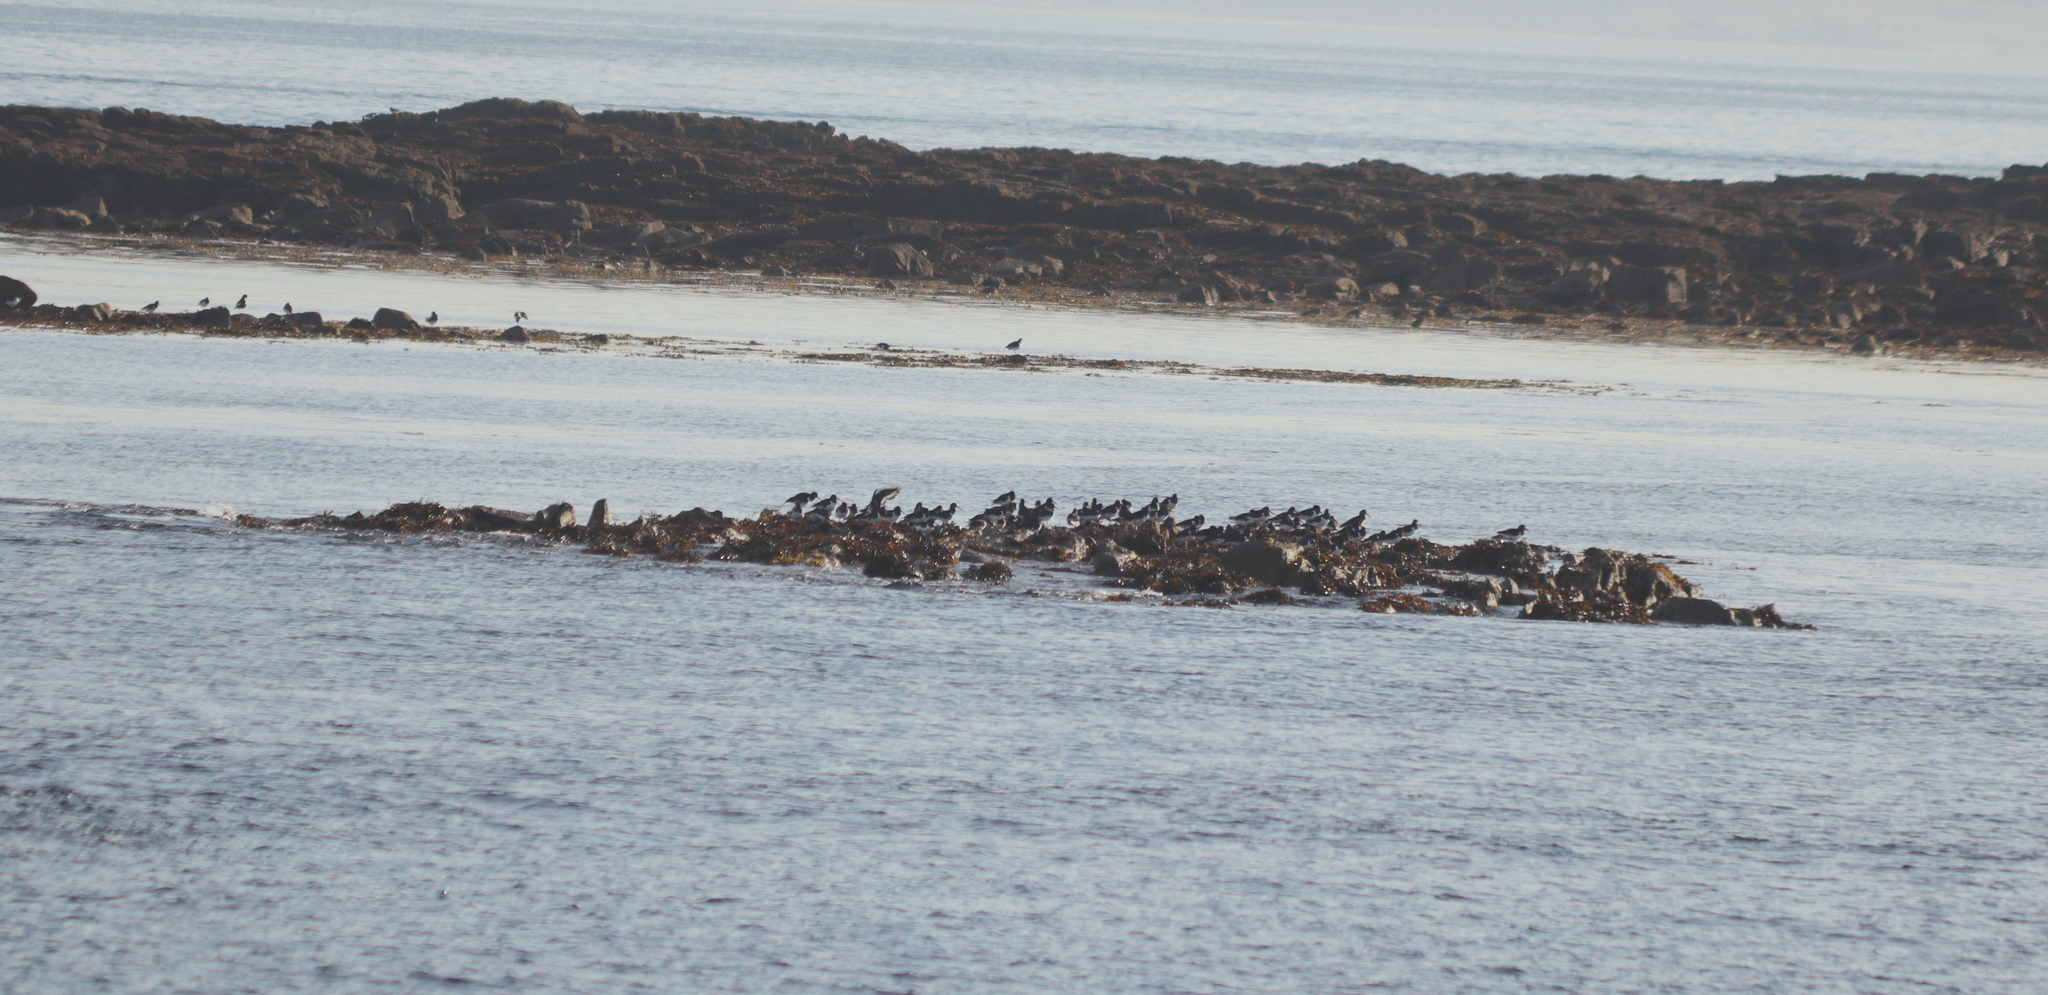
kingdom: Animalia
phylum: Chordata
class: Aves
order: Charadriiformes
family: Haematopodidae
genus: Haematopus
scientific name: Haematopus ostralegus
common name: Eurasian oystercatcher
